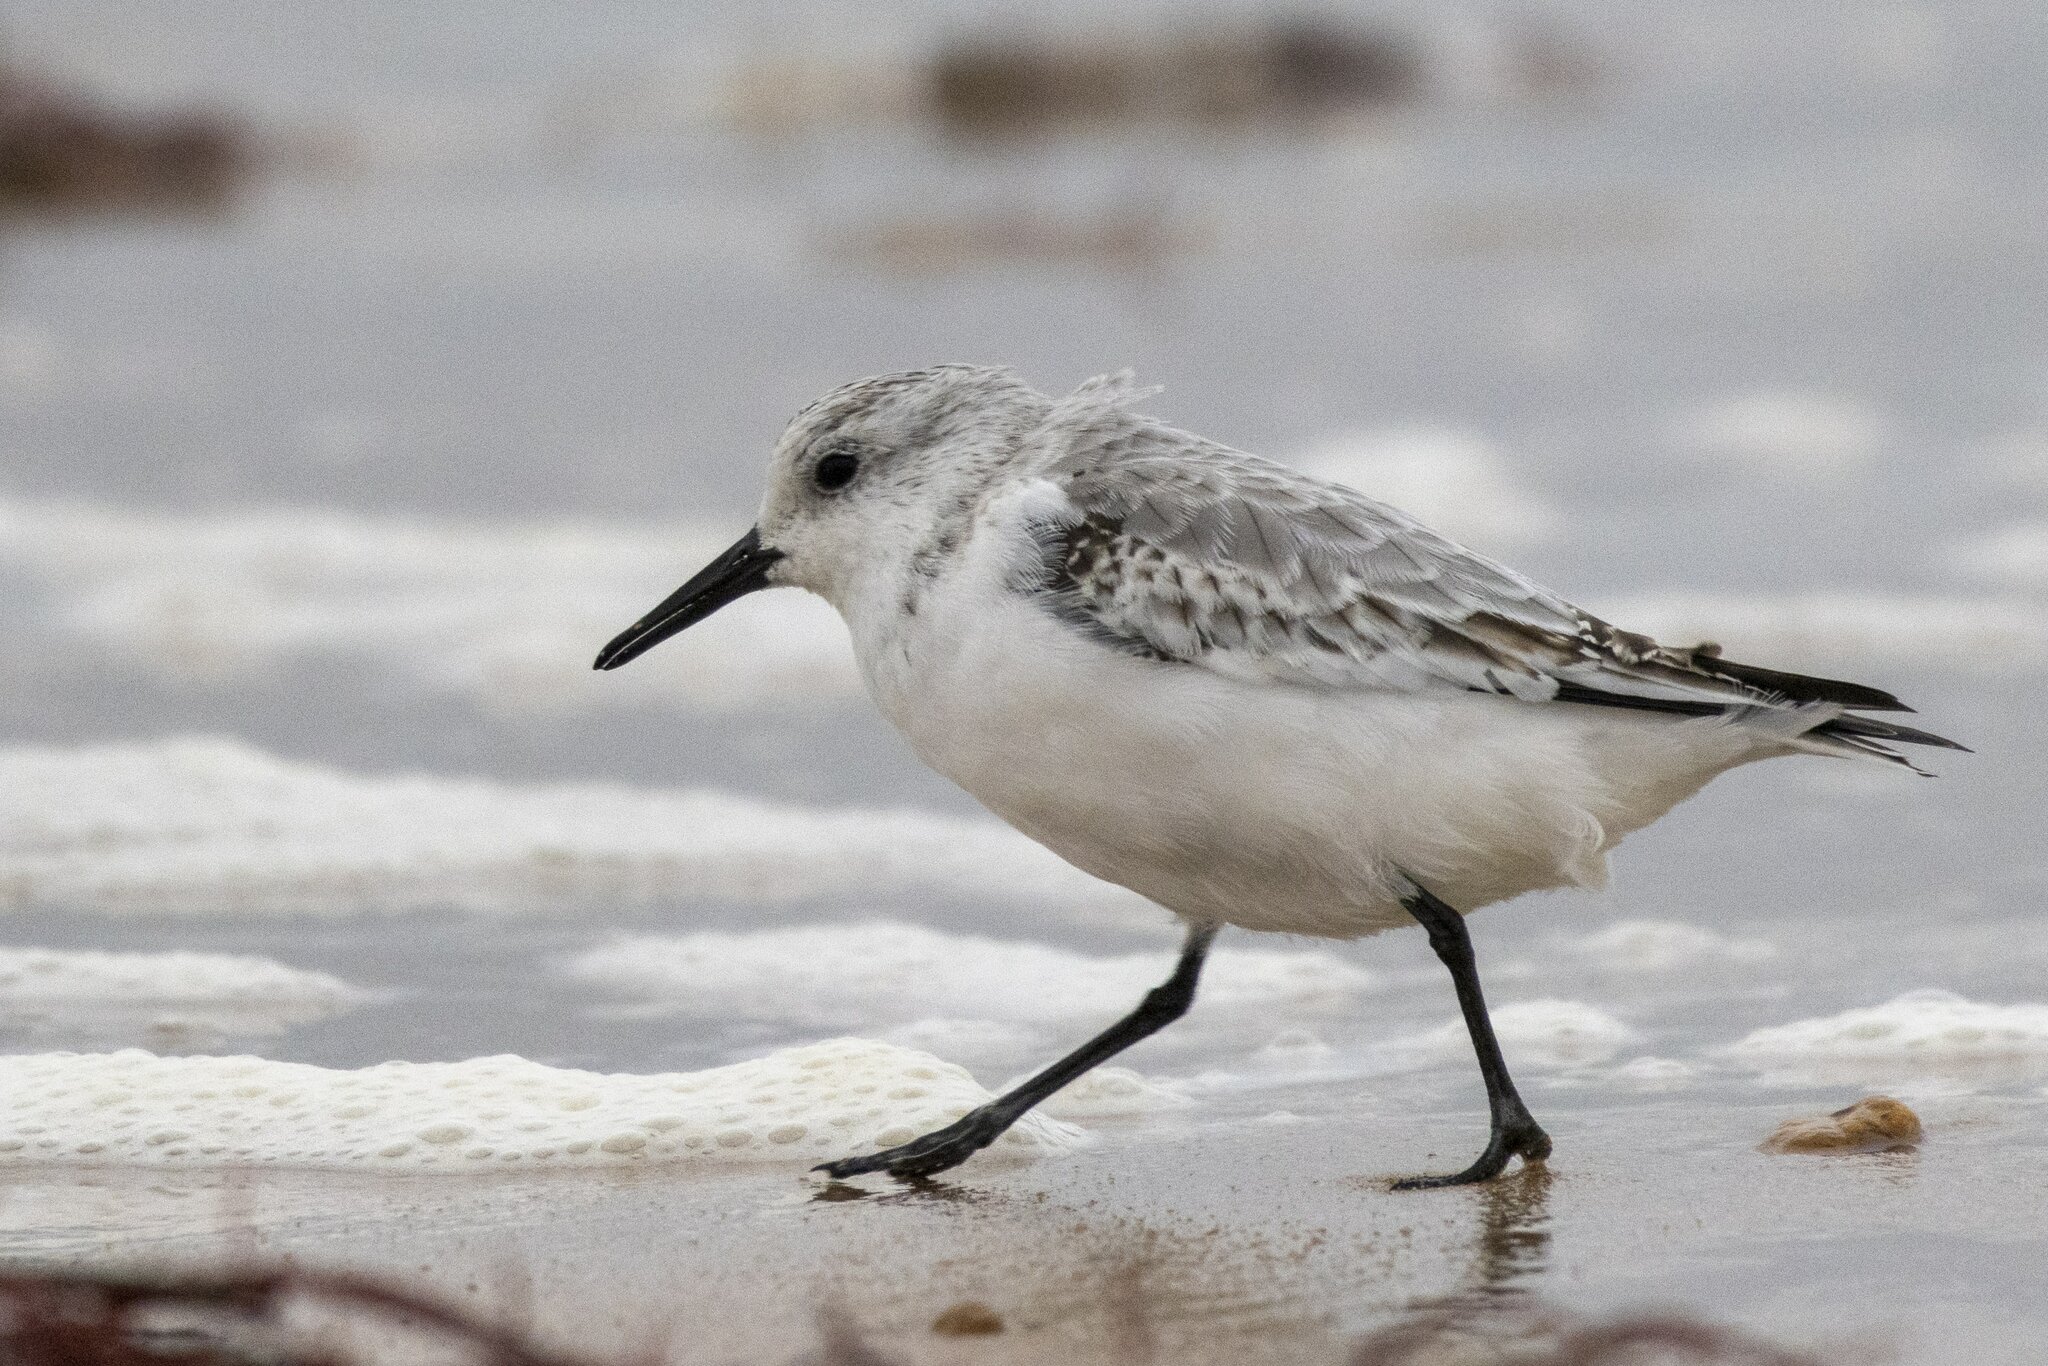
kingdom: Animalia
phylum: Chordata
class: Aves
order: Charadriiformes
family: Scolopacidae
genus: Calidris
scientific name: Calidris alba
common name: Sanderling
